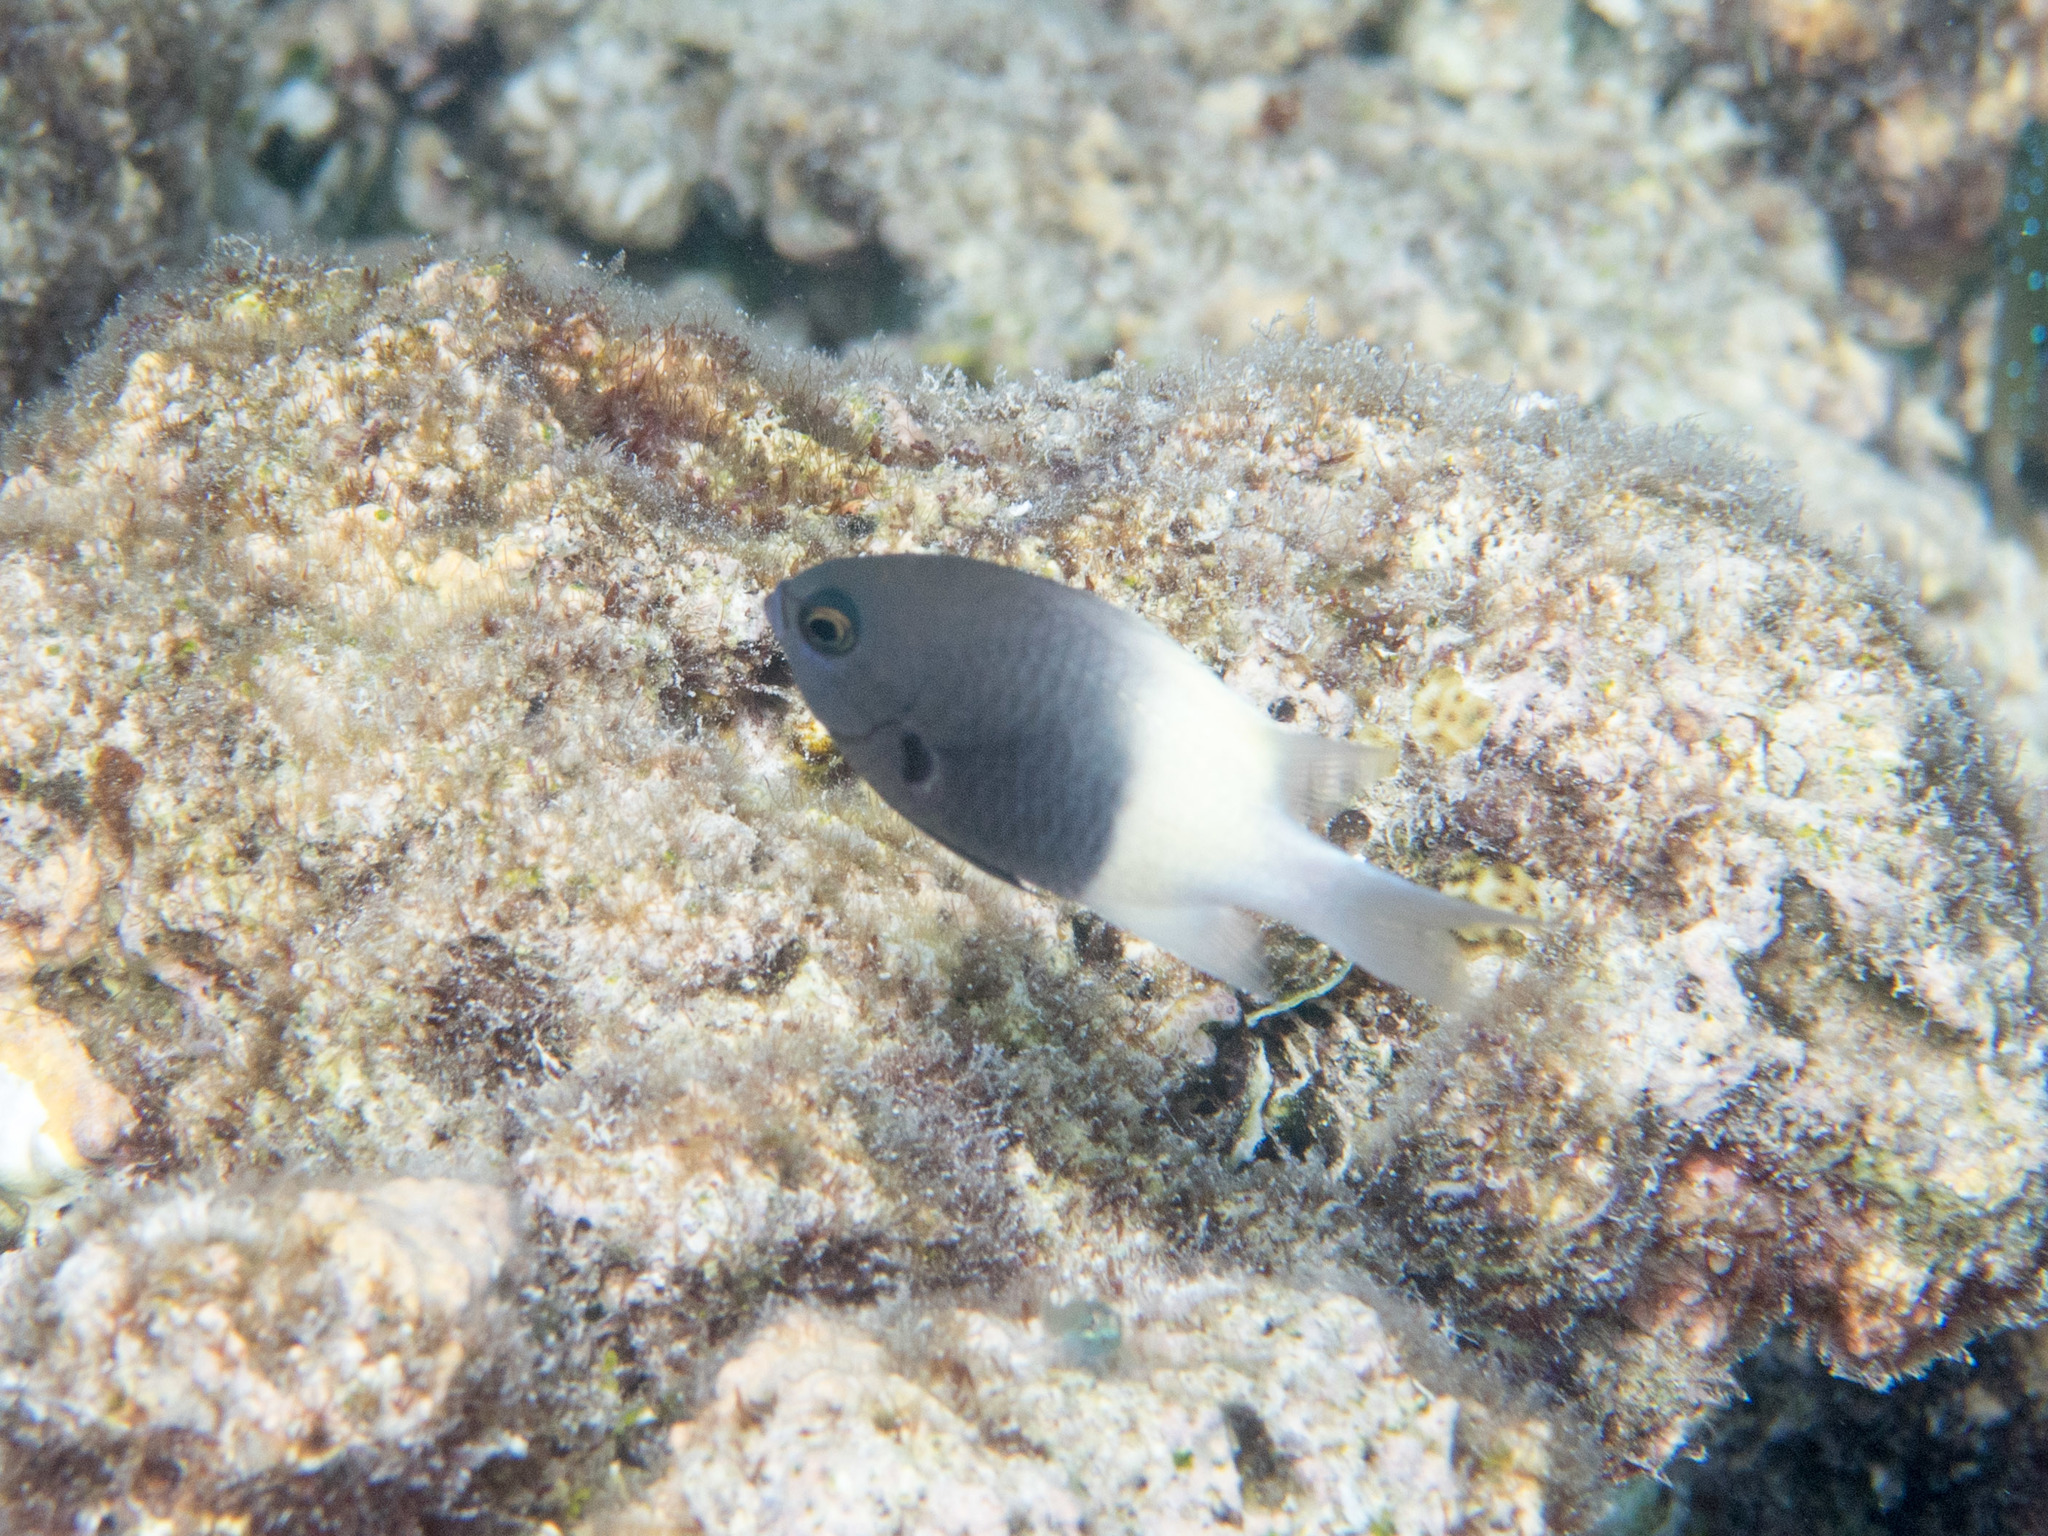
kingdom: Animalia
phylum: Chordata
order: Perciformes
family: Pomacentridae
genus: Chromis
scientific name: Chromis fieldi
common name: Chocolatedip chromis
